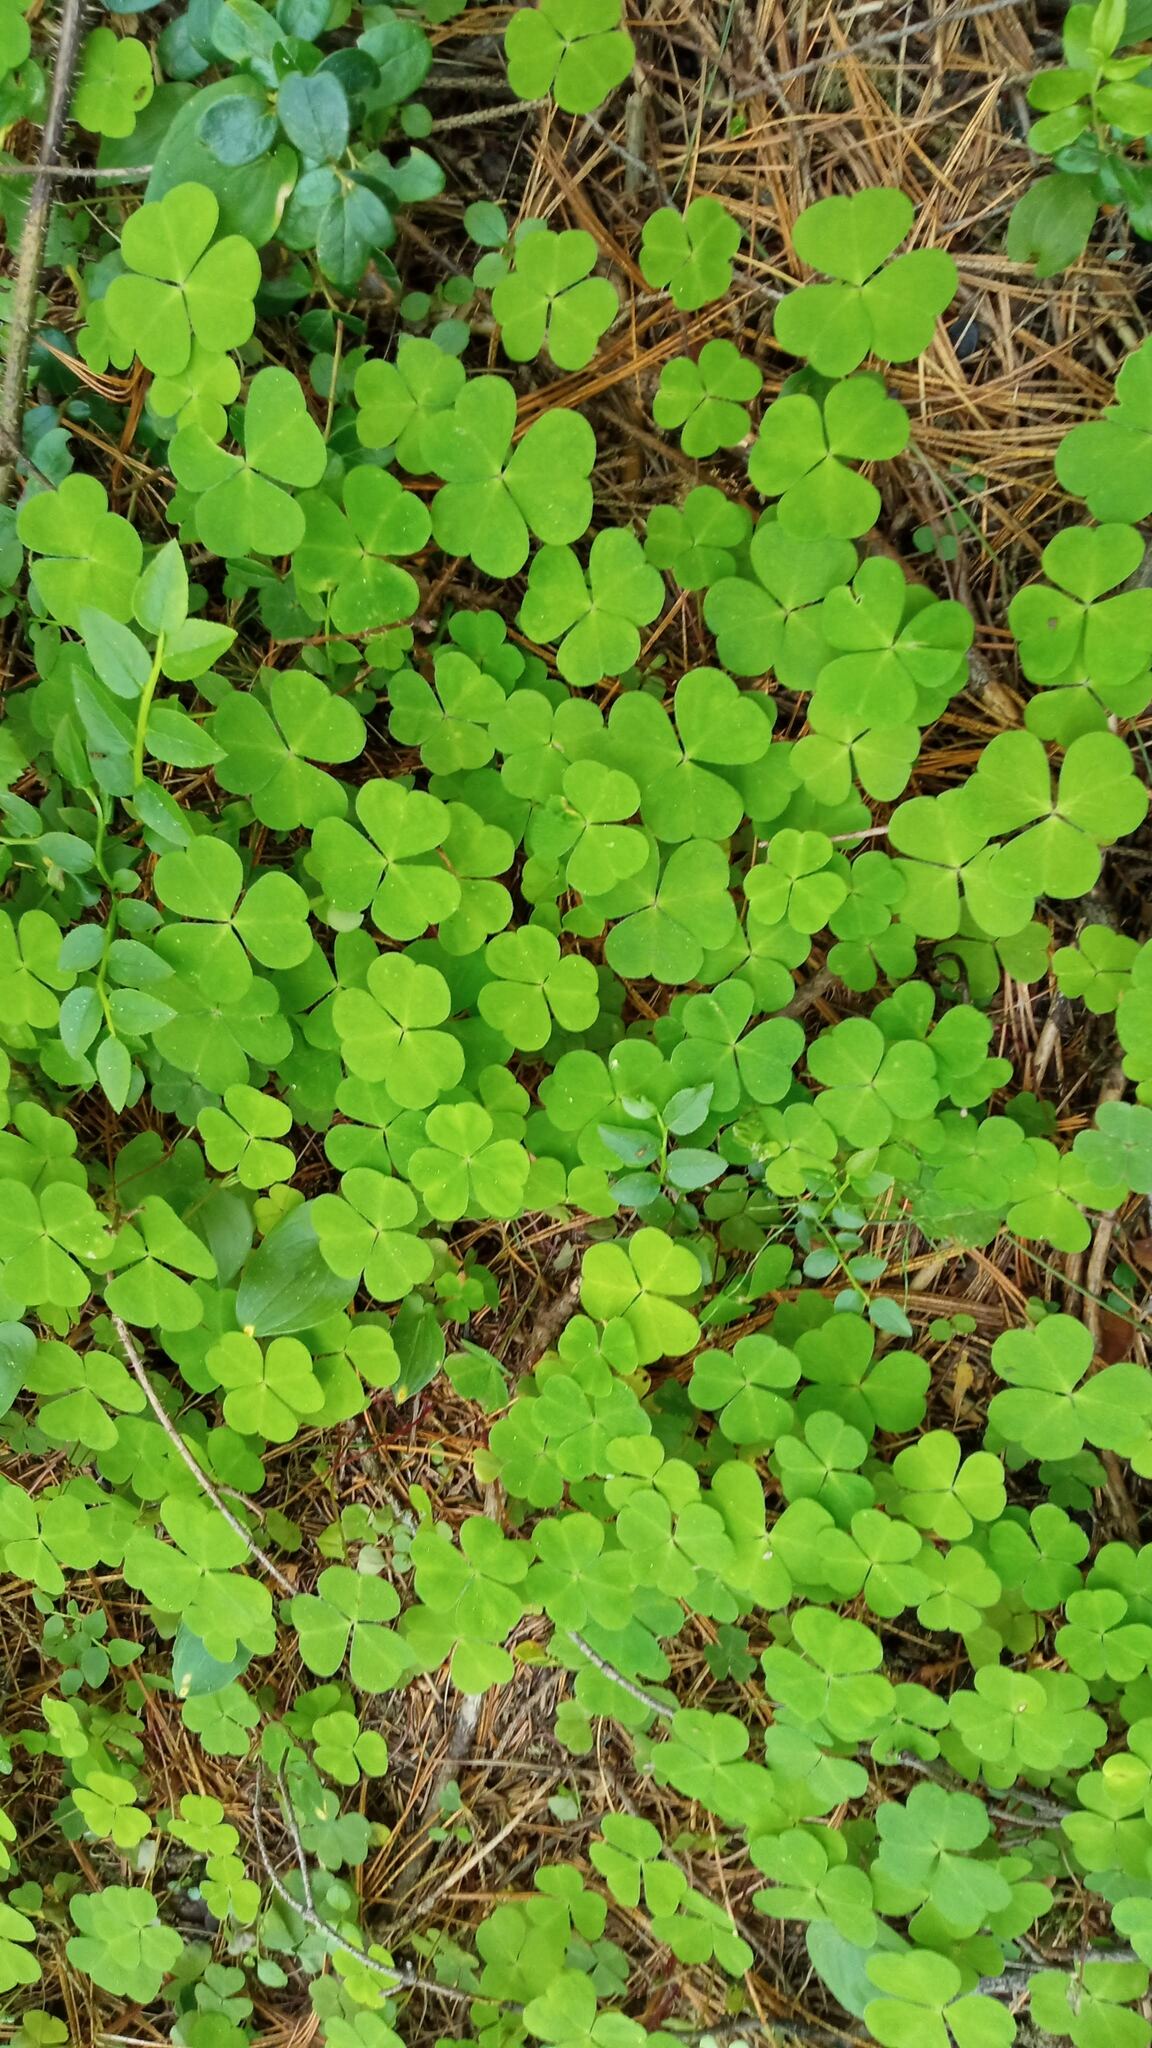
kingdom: Plantae
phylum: Tracheophyta
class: Magnoliopsida
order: Oxalidales
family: Oxalidaceae
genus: Oxalis
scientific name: Oxalis acetosella
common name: Wood-sorrel
